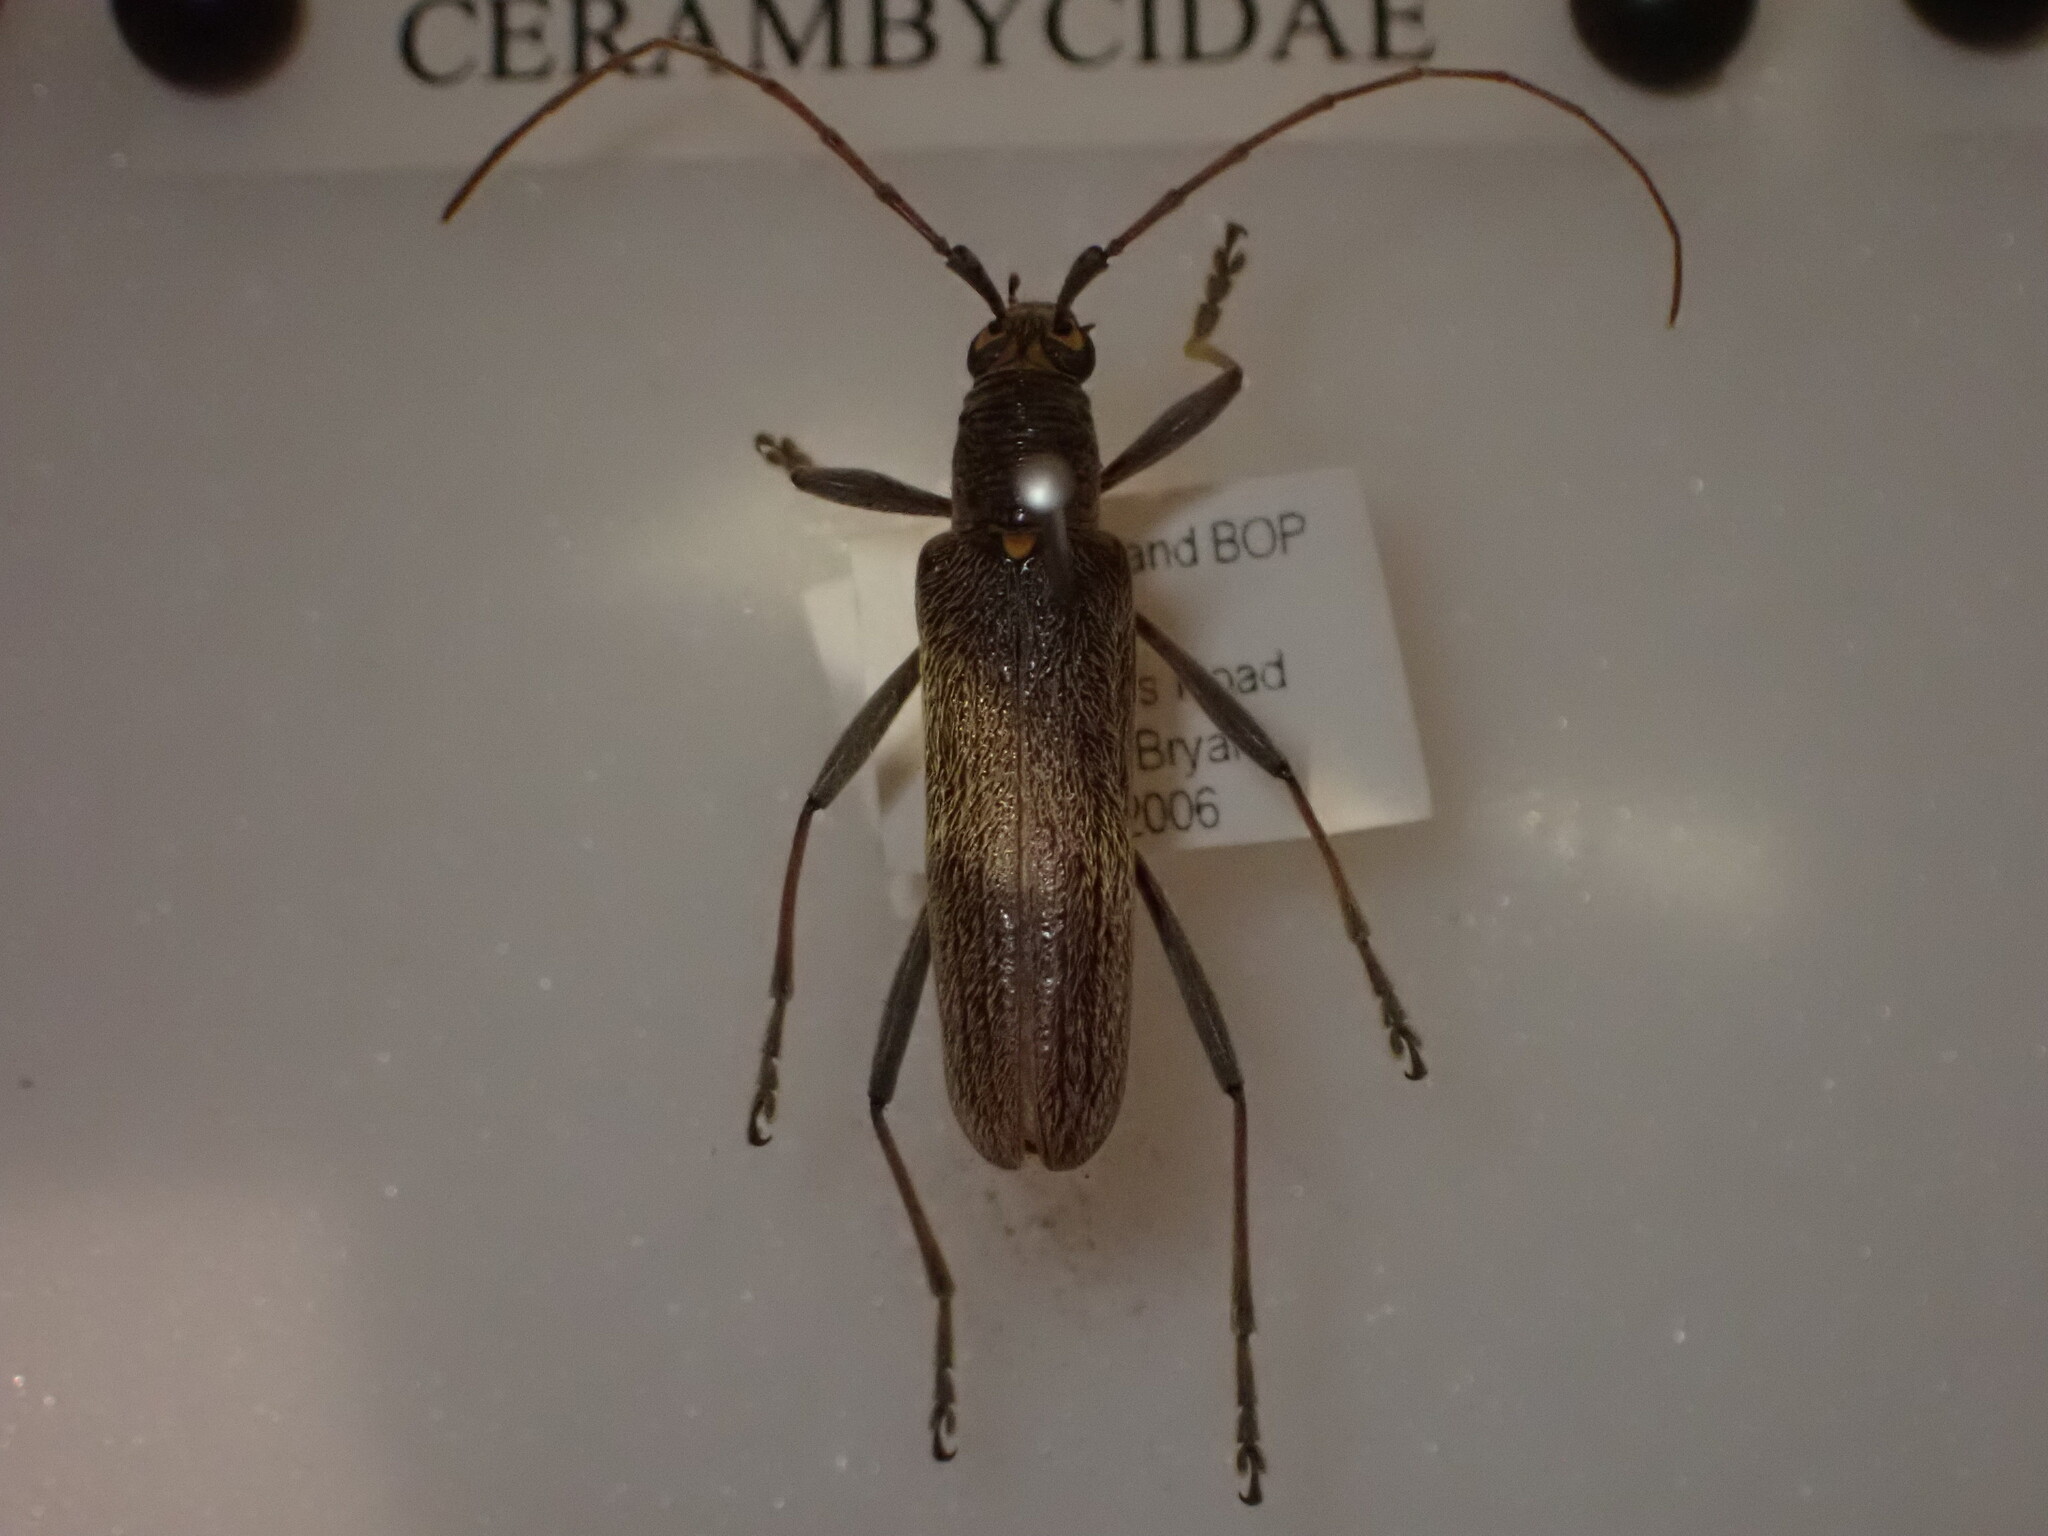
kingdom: Animalia
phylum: Arthropoda
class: Insecta
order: Coleoptera
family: Cerambycidae
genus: Oemona
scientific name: Oemona hirta
